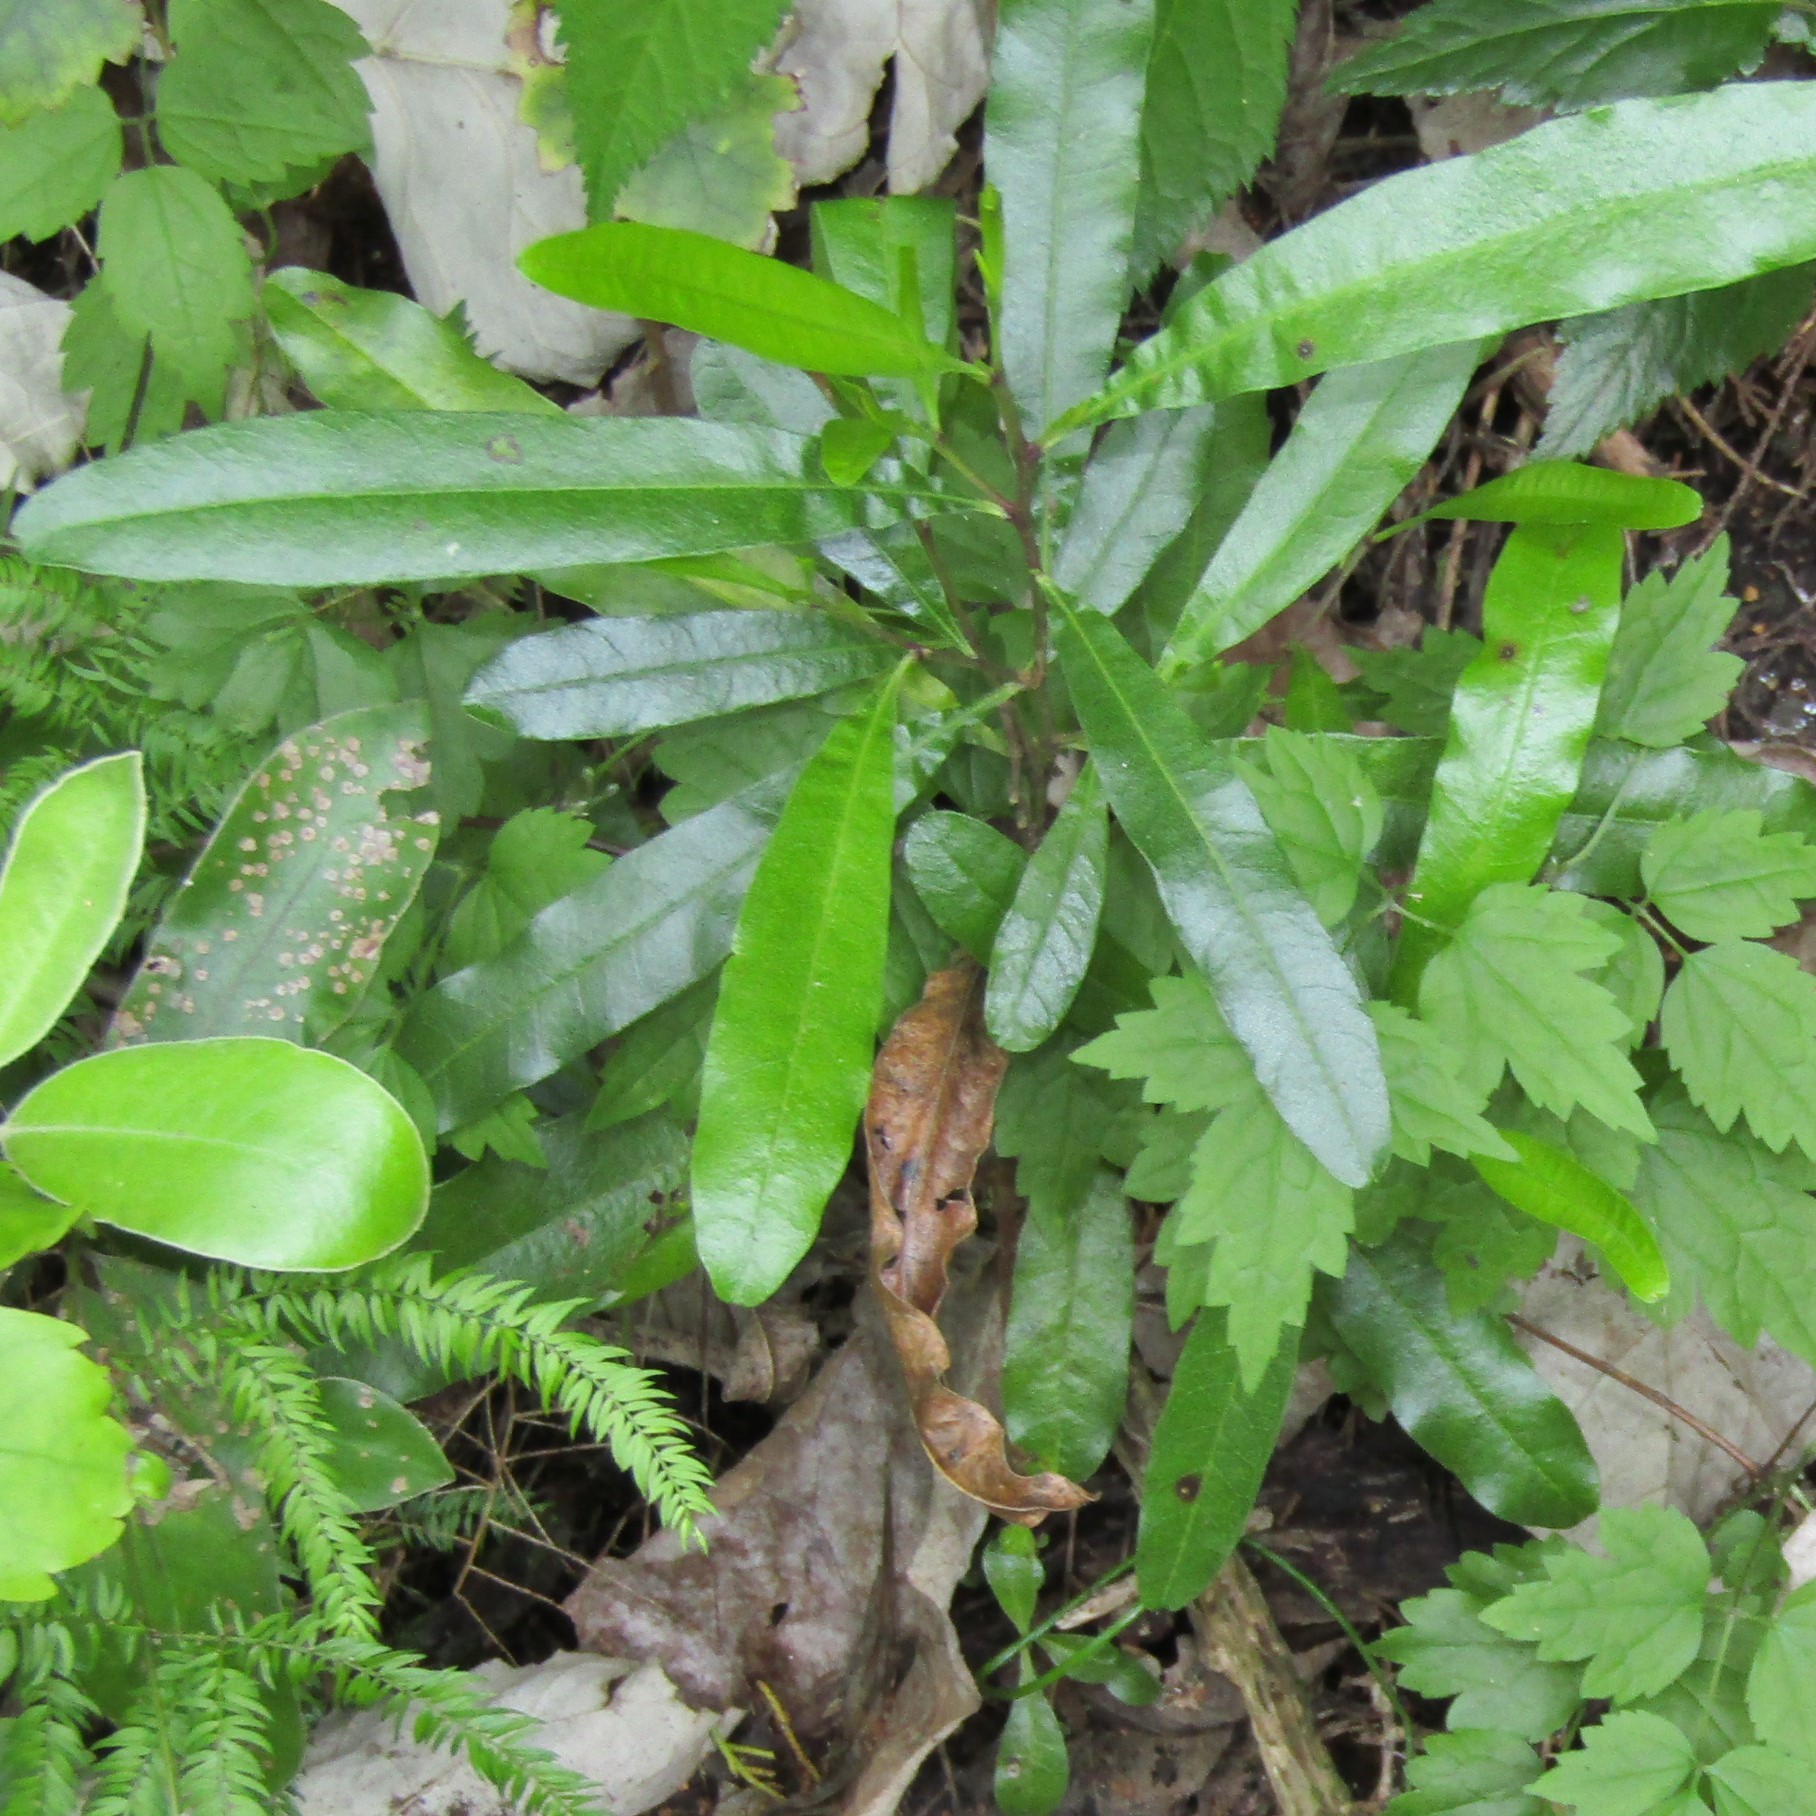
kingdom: Plantae
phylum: Tracheophyta
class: Magnoliopsida
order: Sapindales
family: Sapindaceae
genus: Dodonaea
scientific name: Dodonaea viscosa
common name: Hopbush
